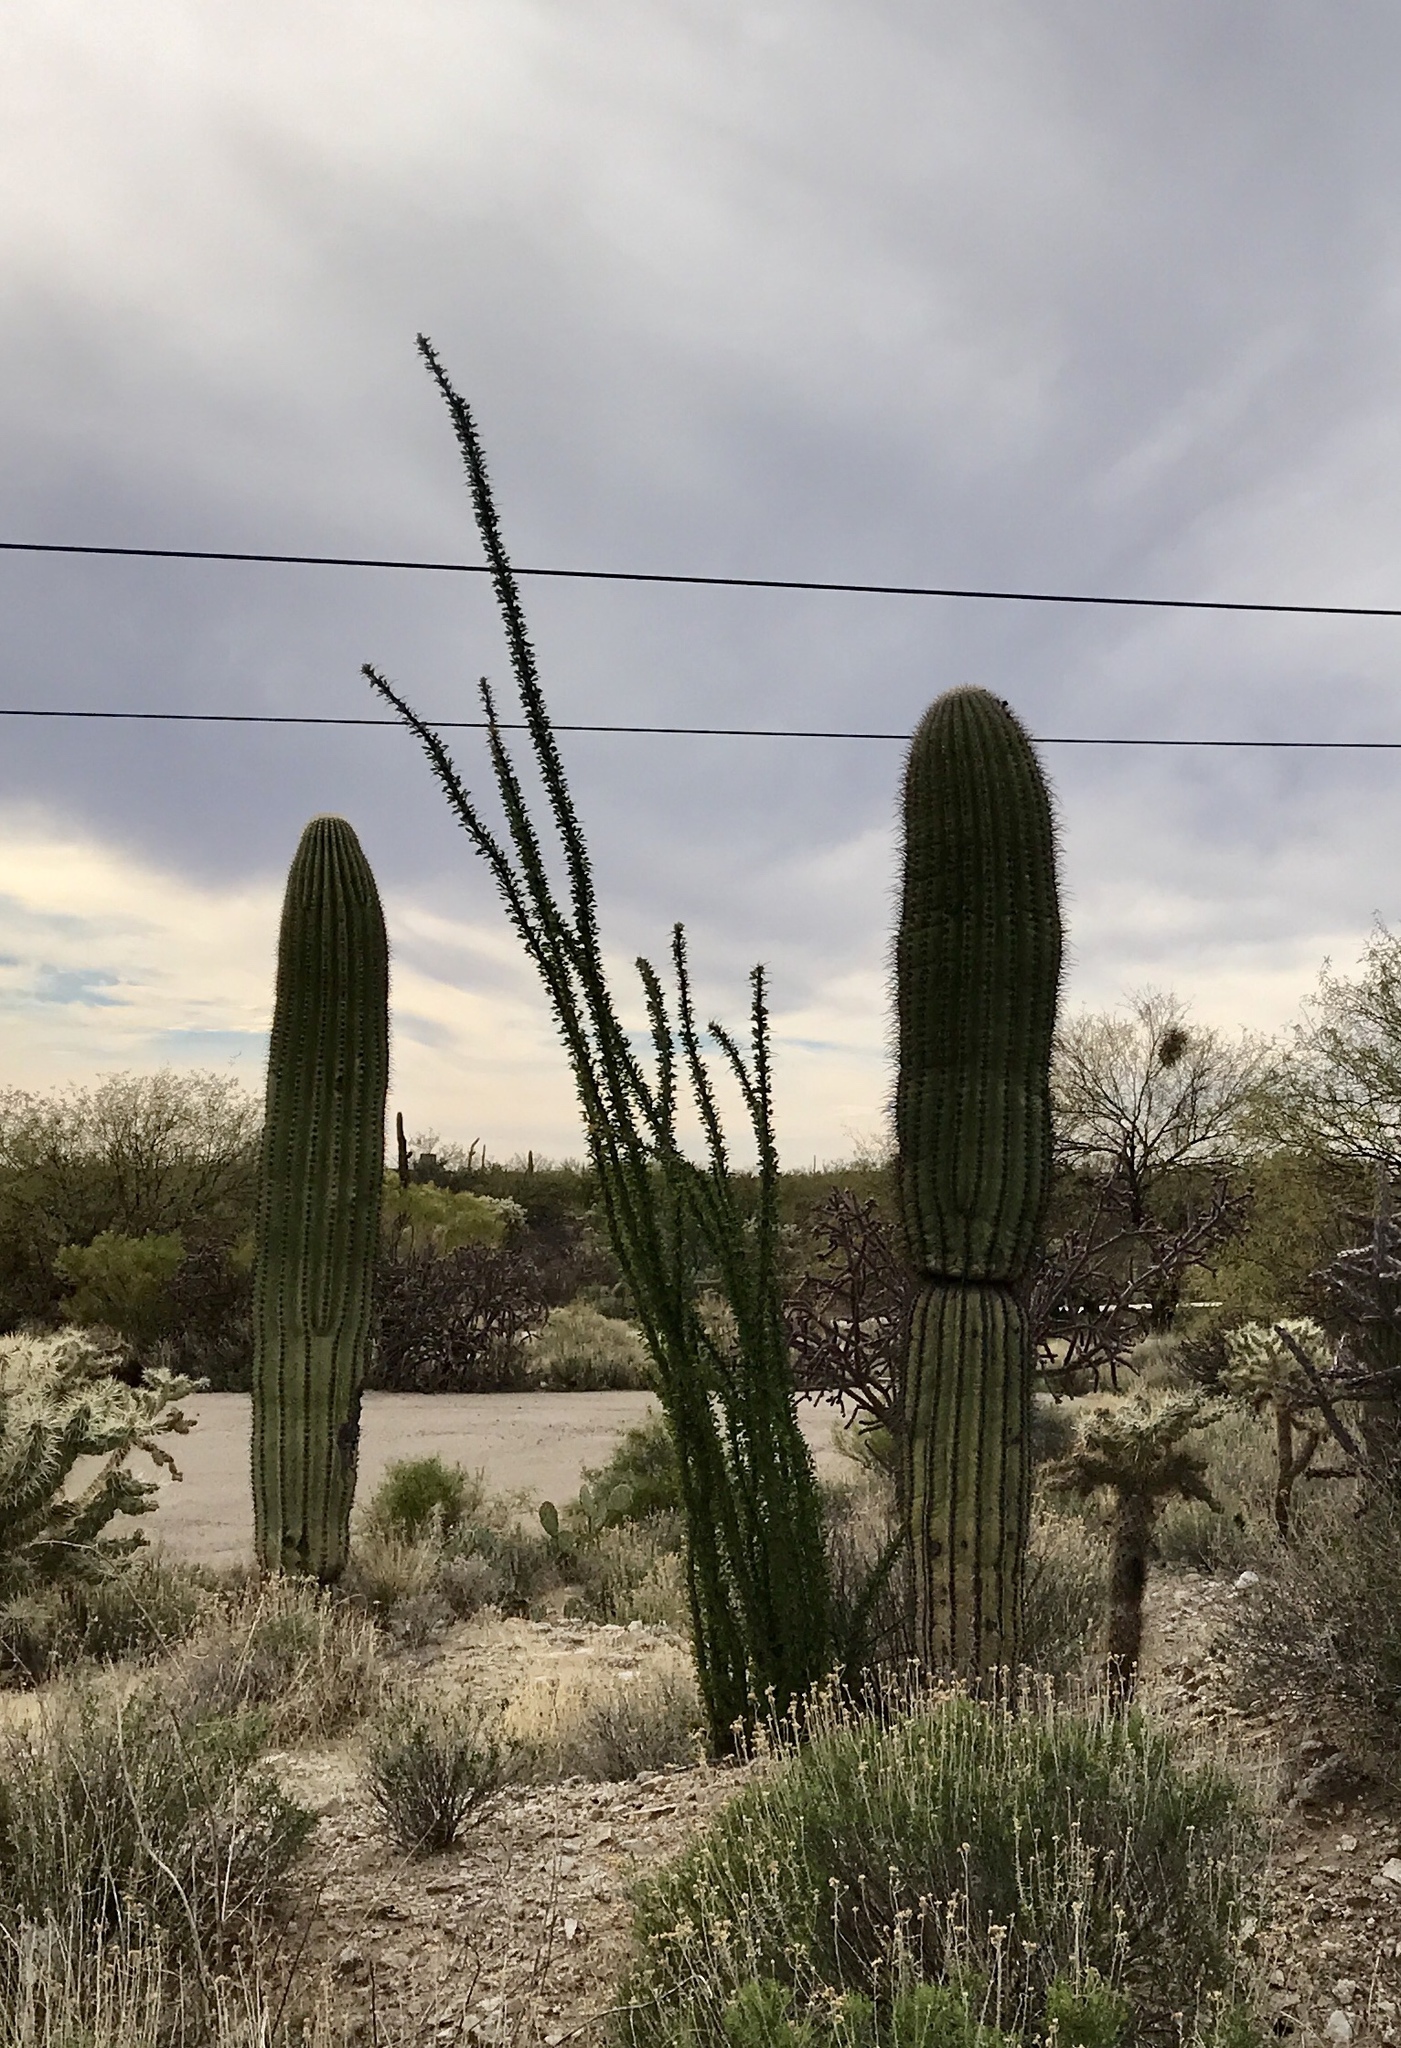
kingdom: Plantae
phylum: Tracheophyta
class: Magnoliopsida
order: Ericales
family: Fouquieriaceae
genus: Fouquieria
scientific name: Fouquieria splendens
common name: Vine-cactus
